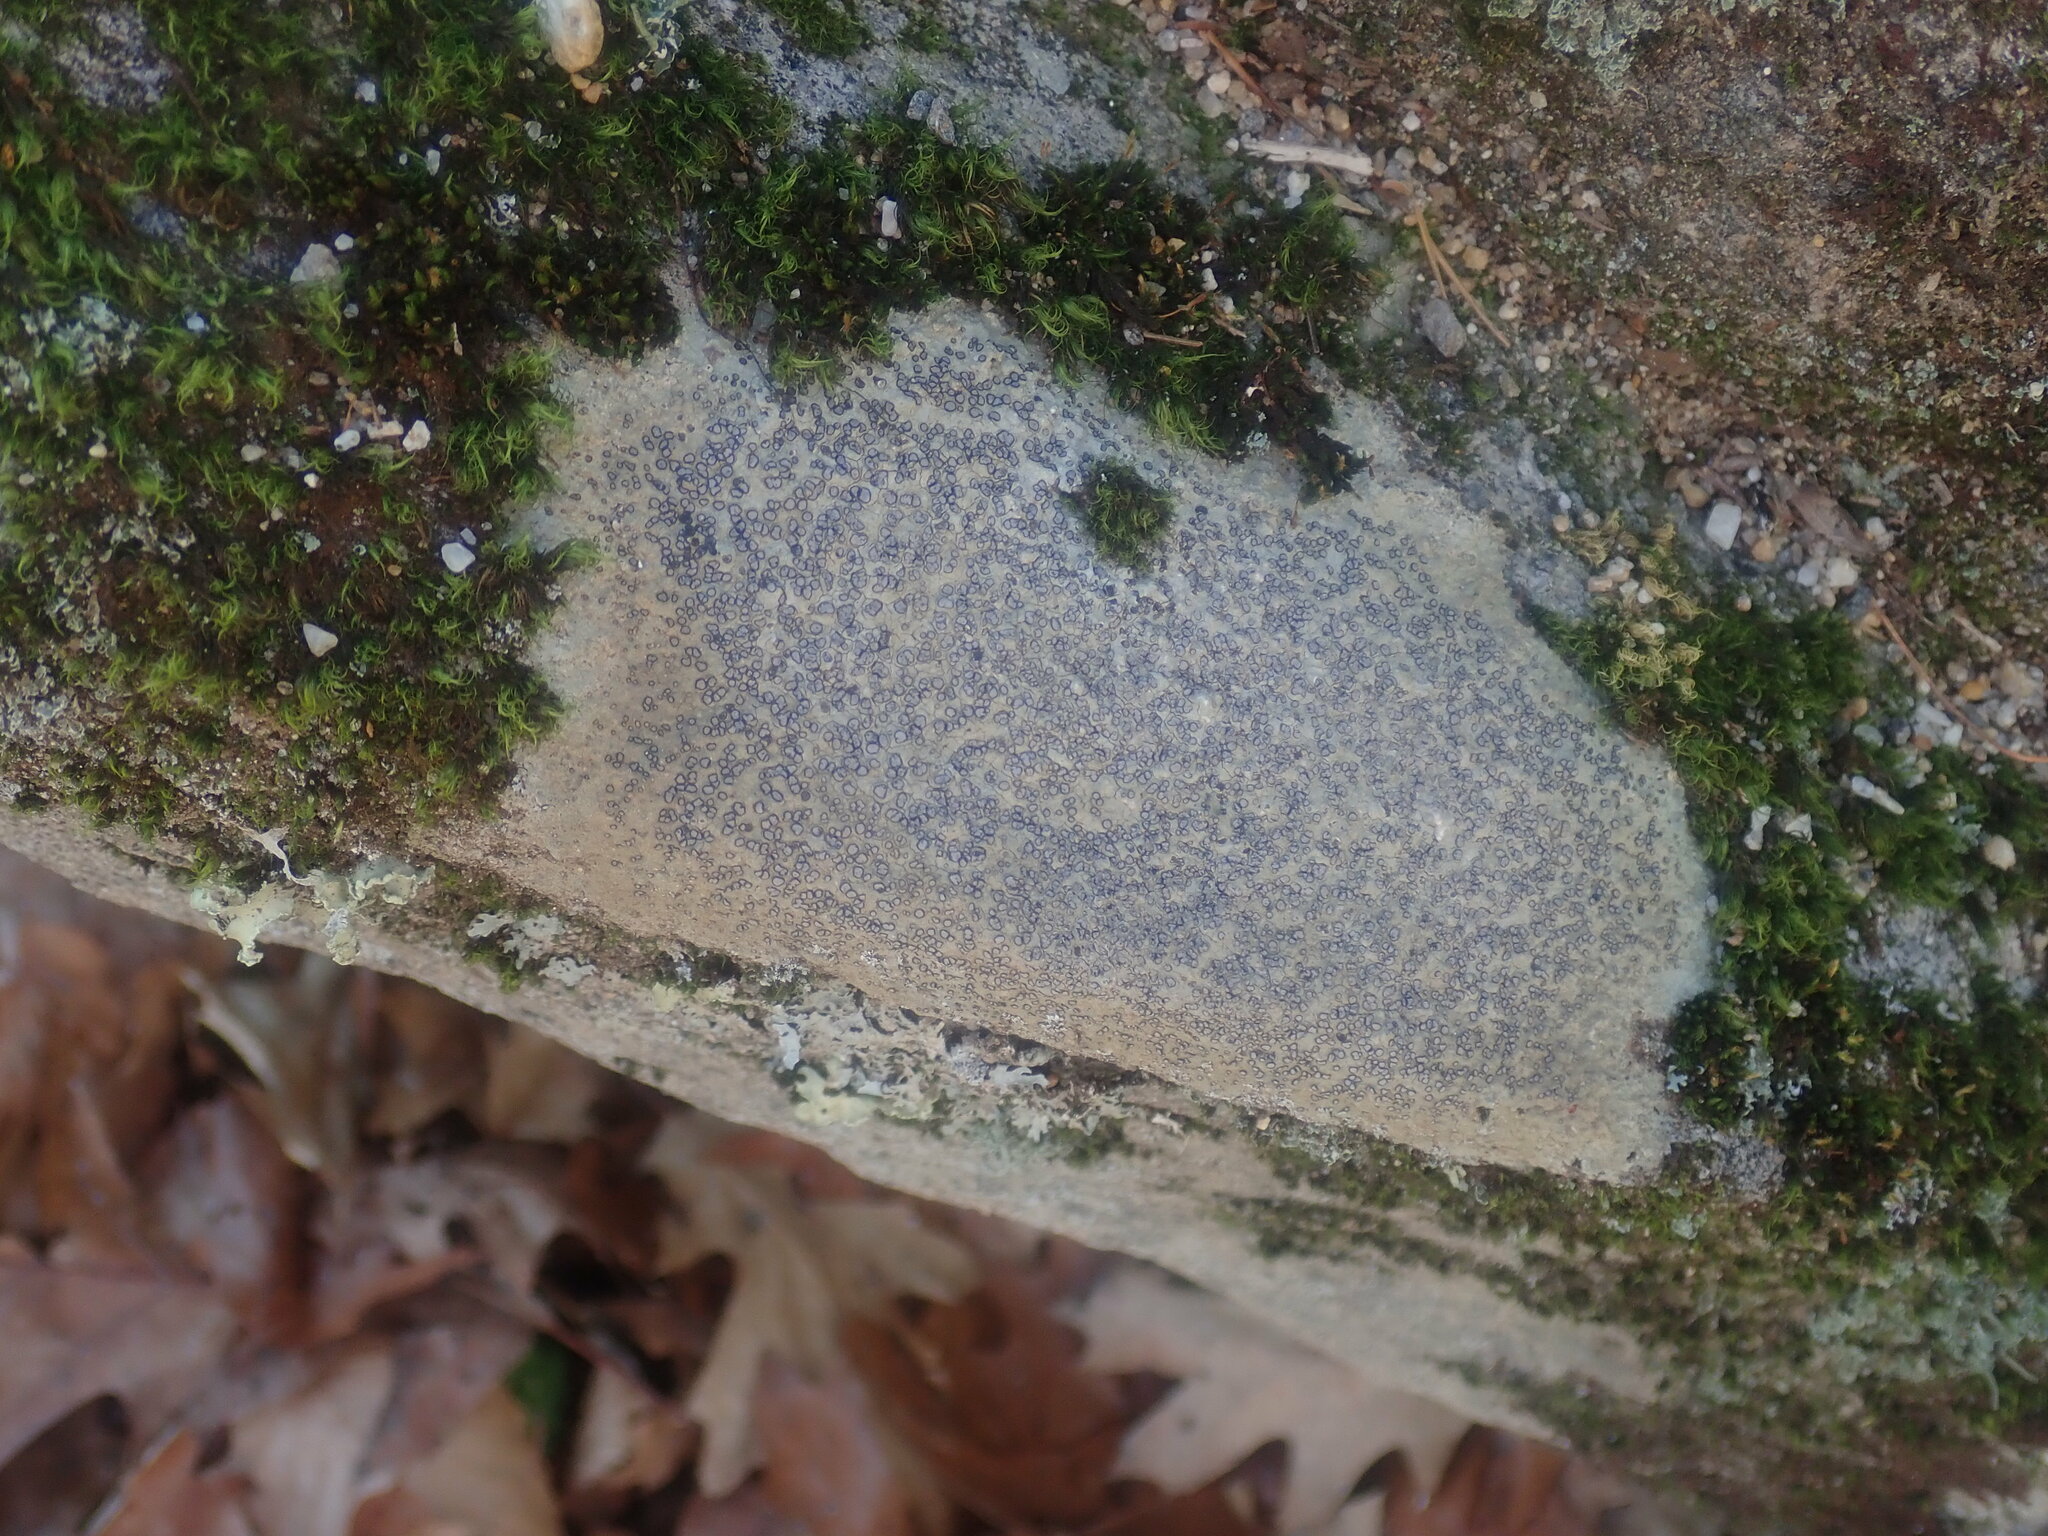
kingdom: Fungi
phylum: Ascomycota
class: Lecanoromycetes
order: Lecideales
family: Lecideaceae
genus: Porpidia
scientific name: Porpidia albocaerulescens
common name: Smokey-eyed boulder lichen
